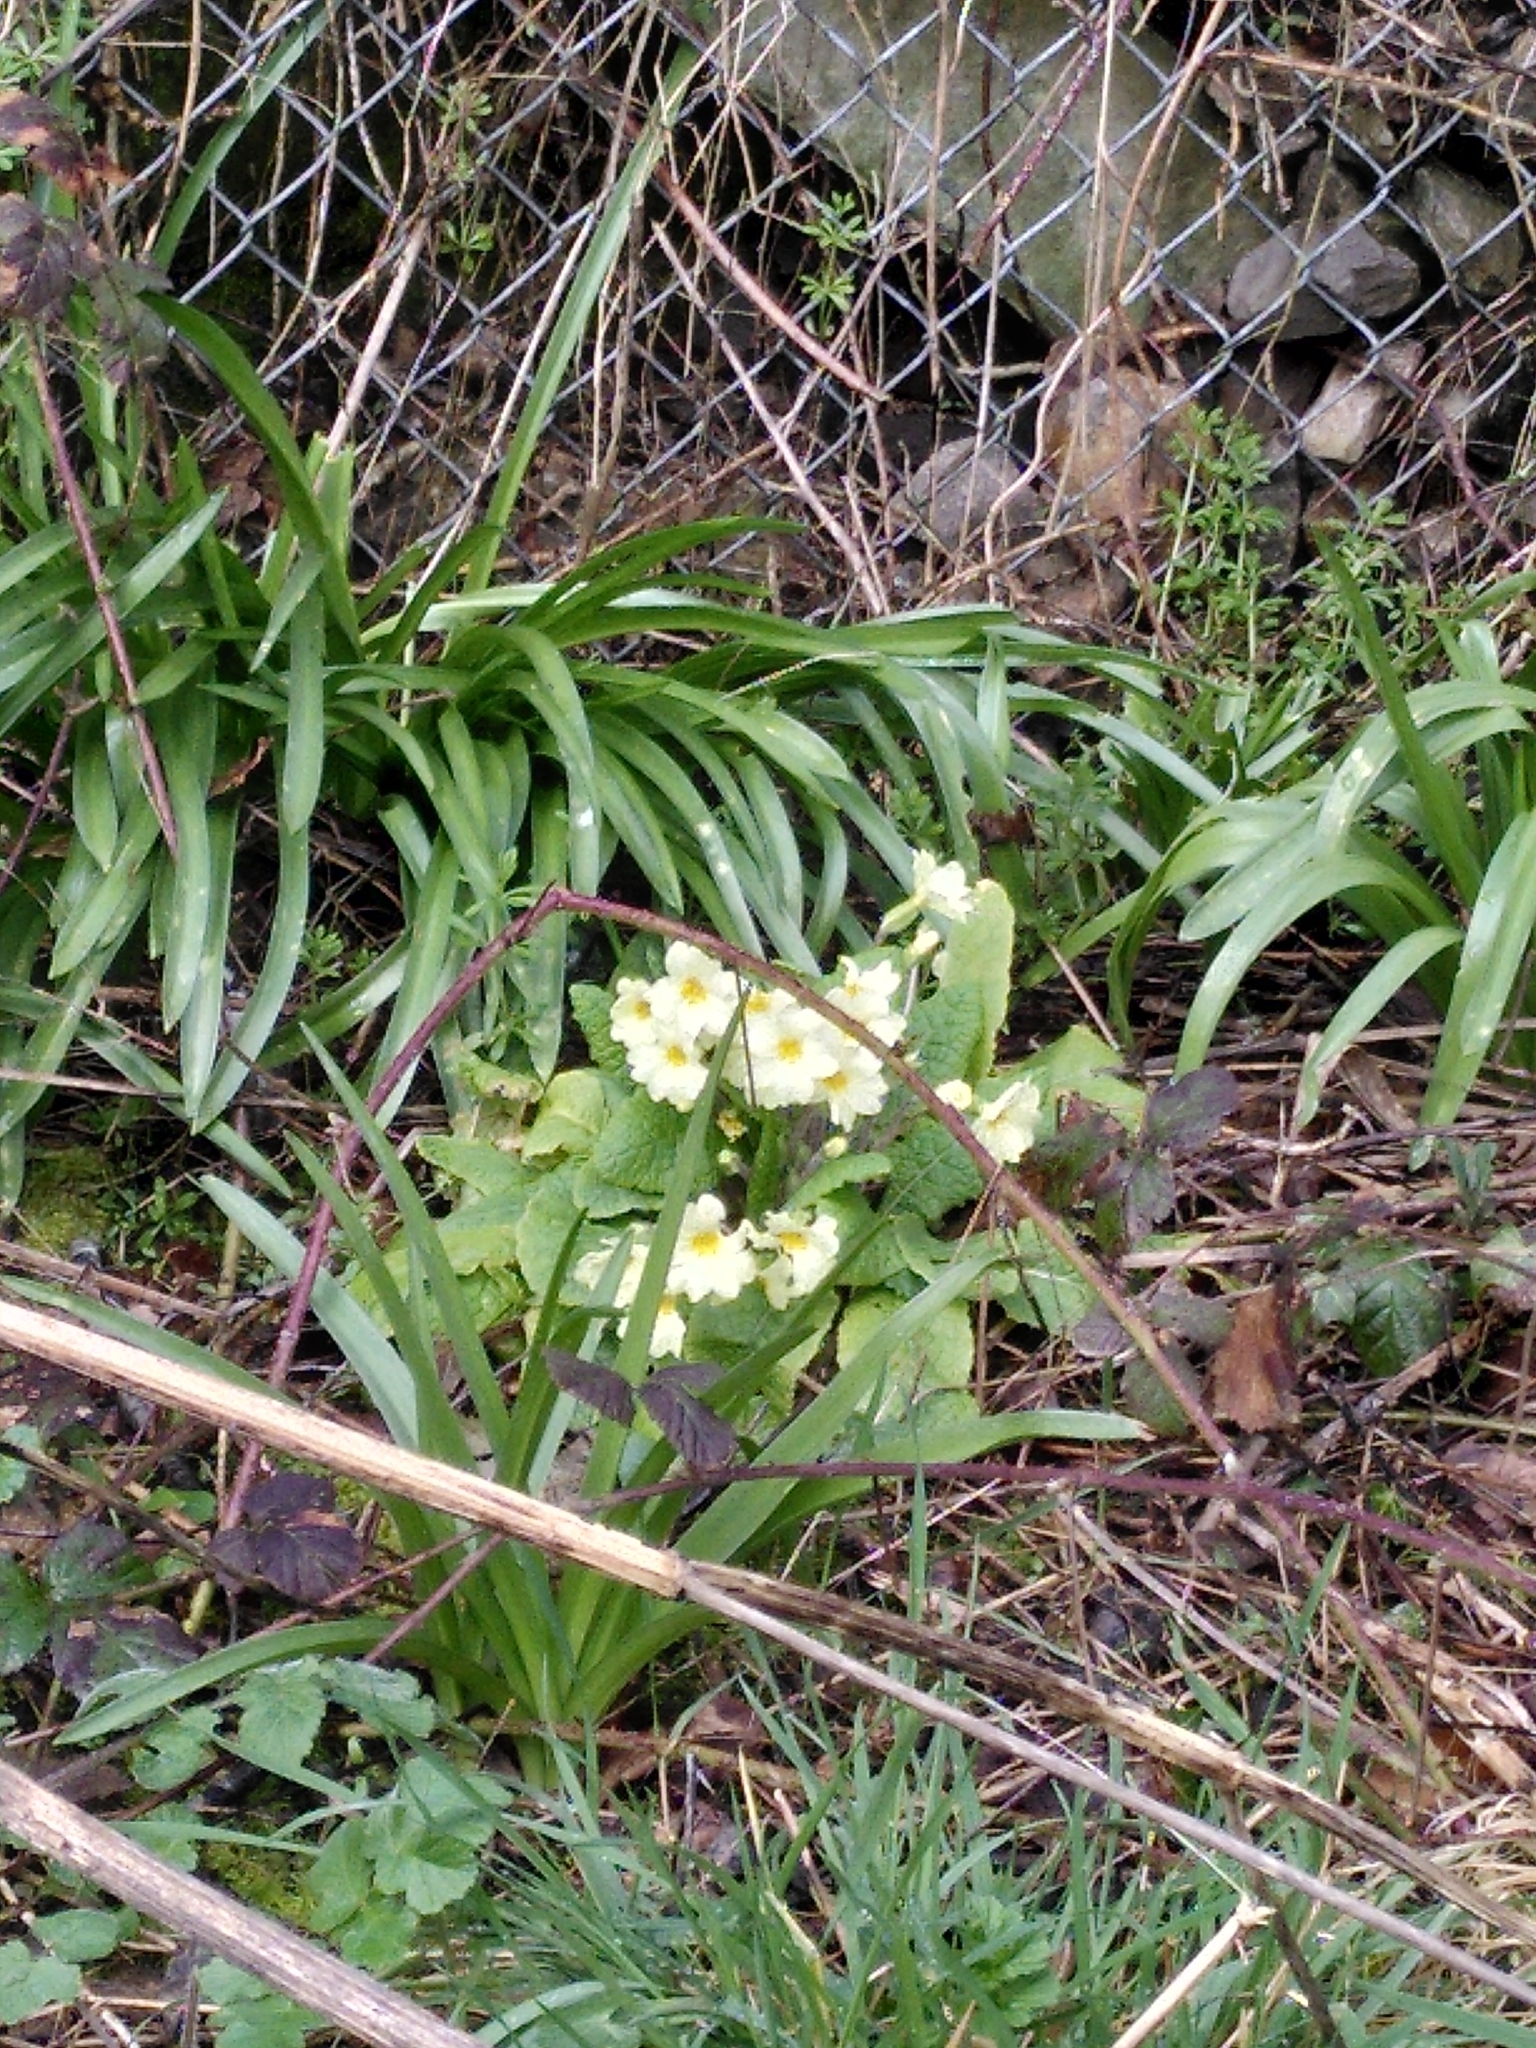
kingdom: Plantae
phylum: Tracheophyta
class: Magnoliopsida
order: Ericales
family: Primulaceae
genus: Primula
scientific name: Primula vulgaris
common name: Primrose
